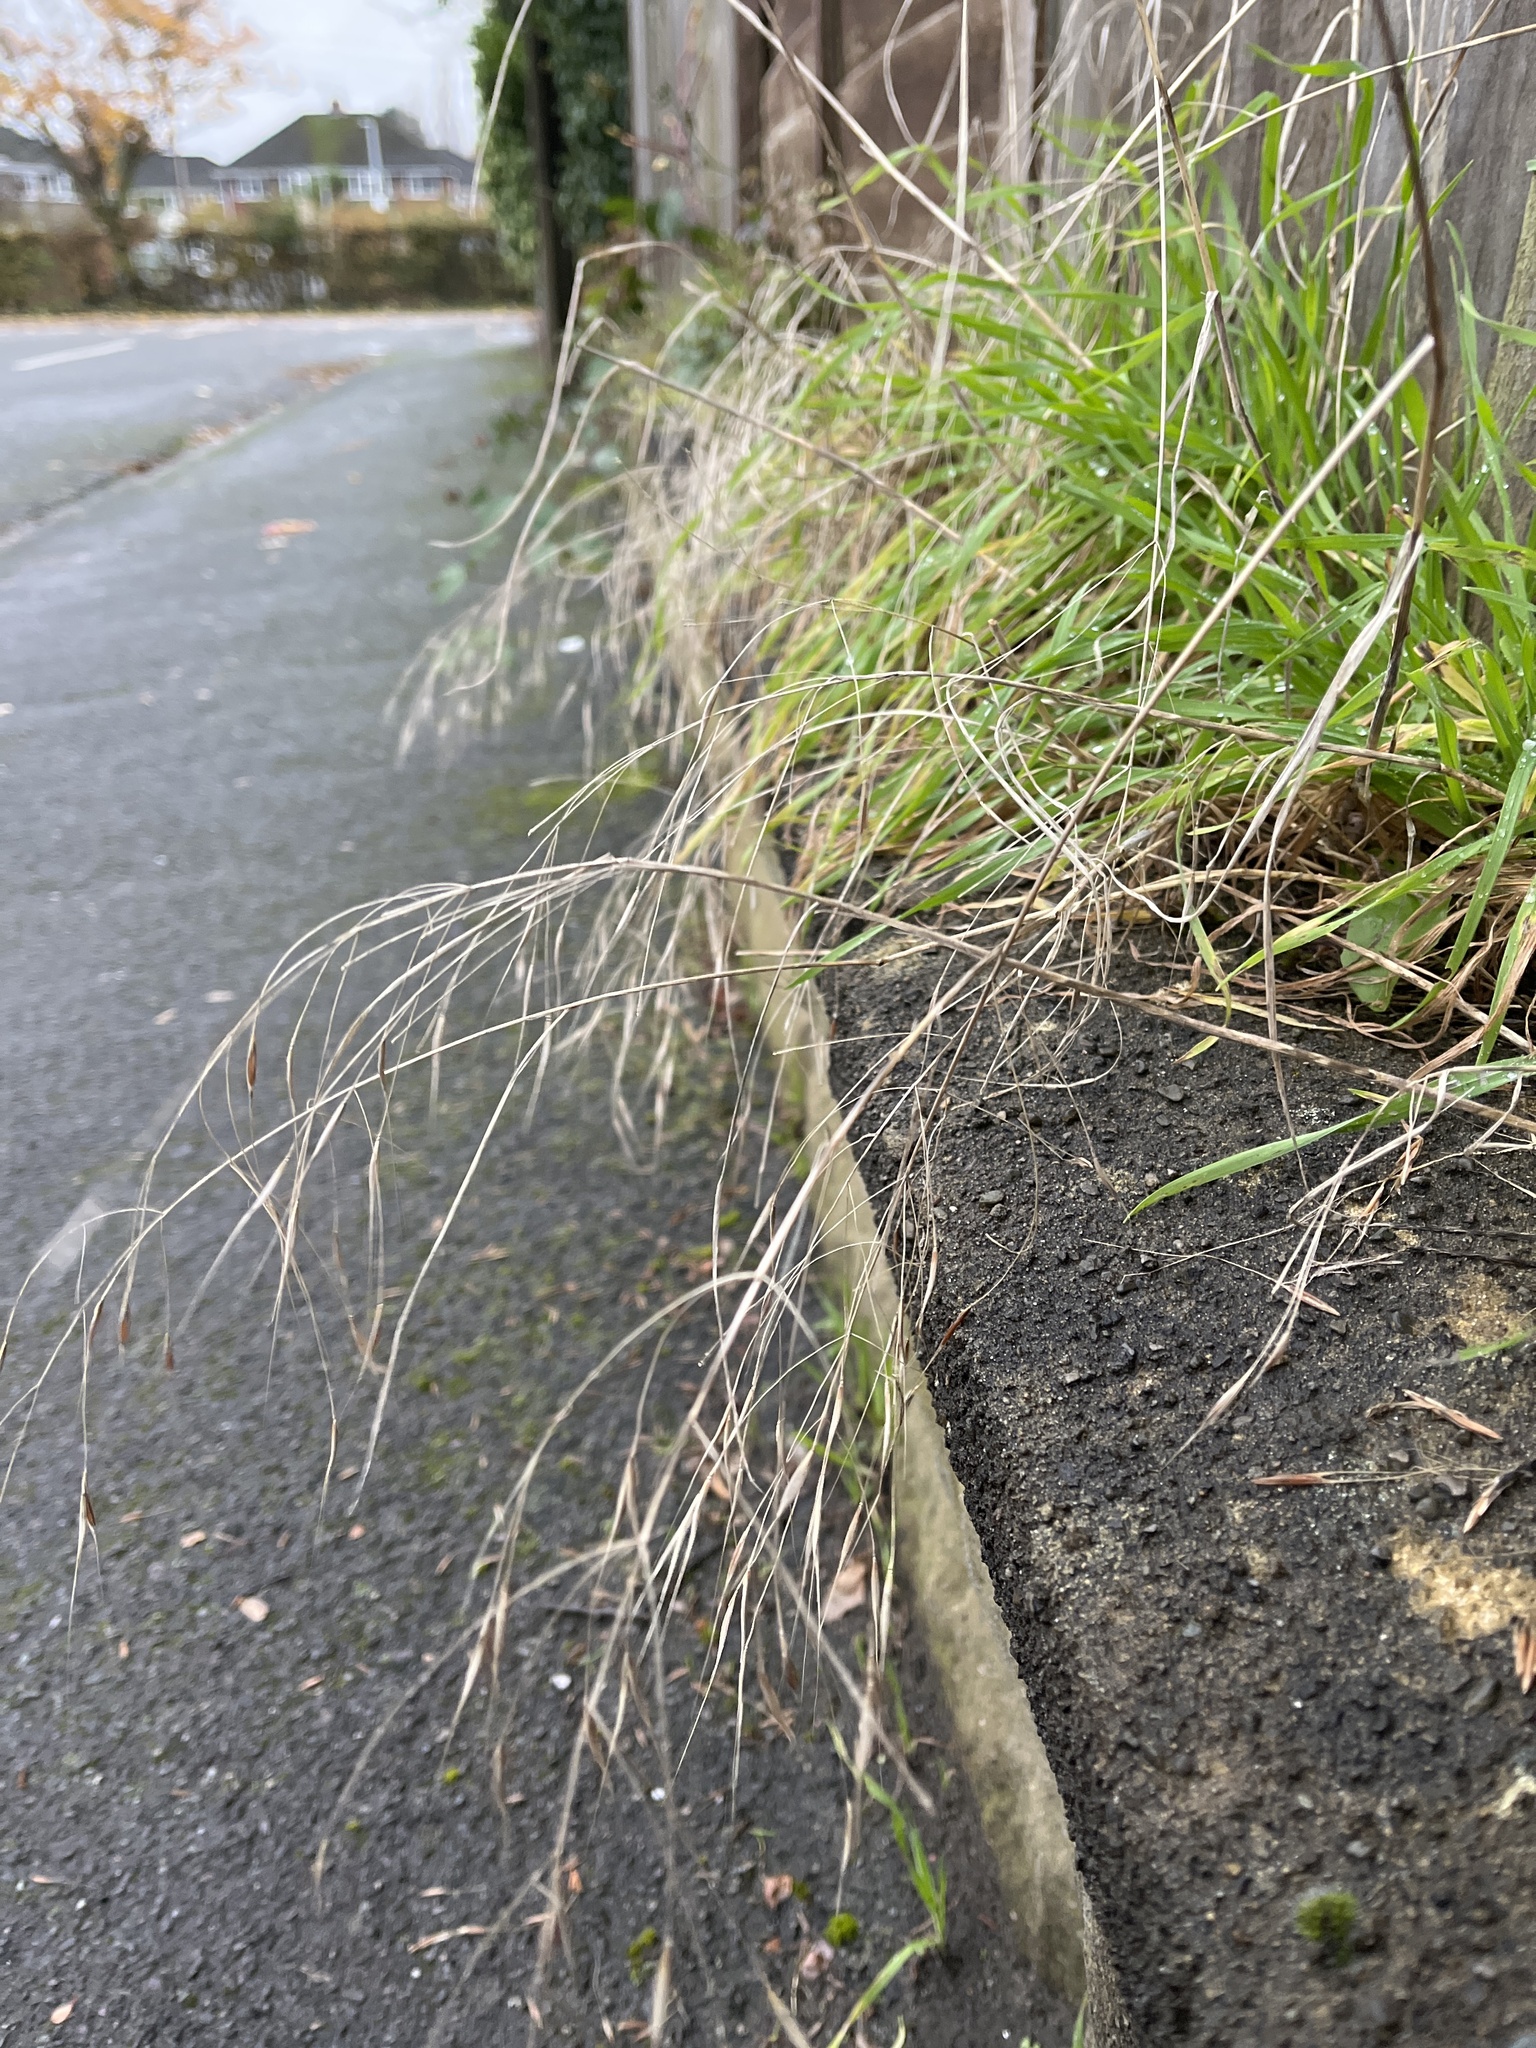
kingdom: Plantae
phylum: Tracheophyta
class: Liliopsida
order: Poales
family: Poaceae
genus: Bromus
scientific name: Bromus sterilis
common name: Poverty brome
